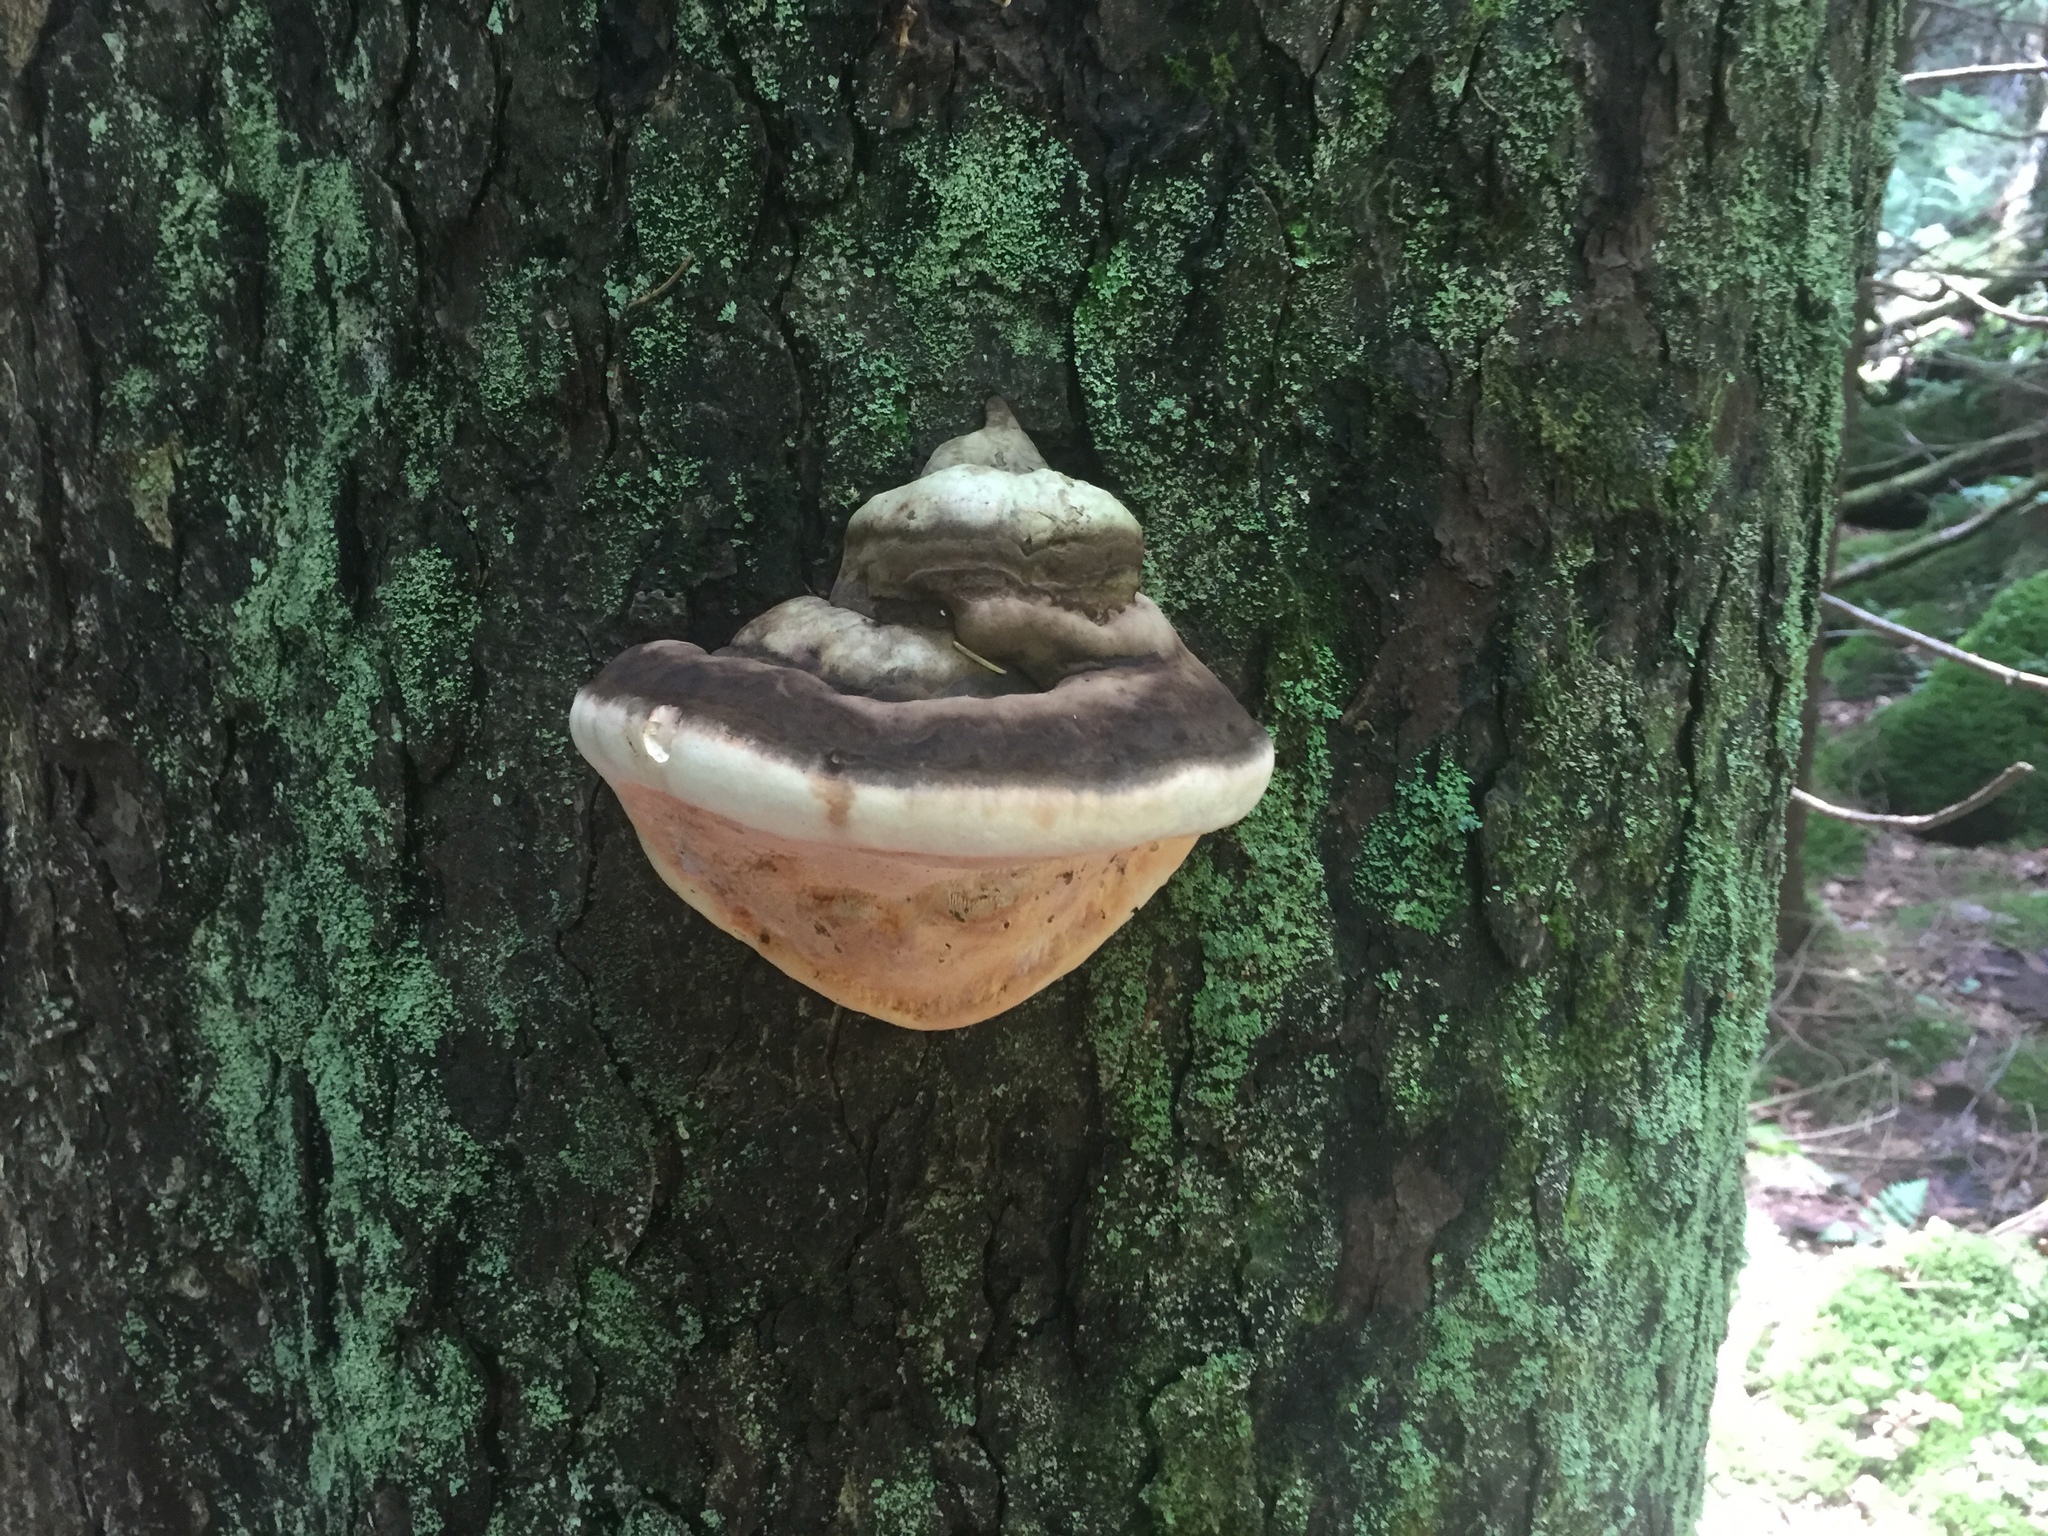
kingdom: Fungi
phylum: Basidiomycota
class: Agaricomycetes
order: Polyporales
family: Polyporaceae
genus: Ganoderma
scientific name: Ganoderma applanatum
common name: Artist's bracket
